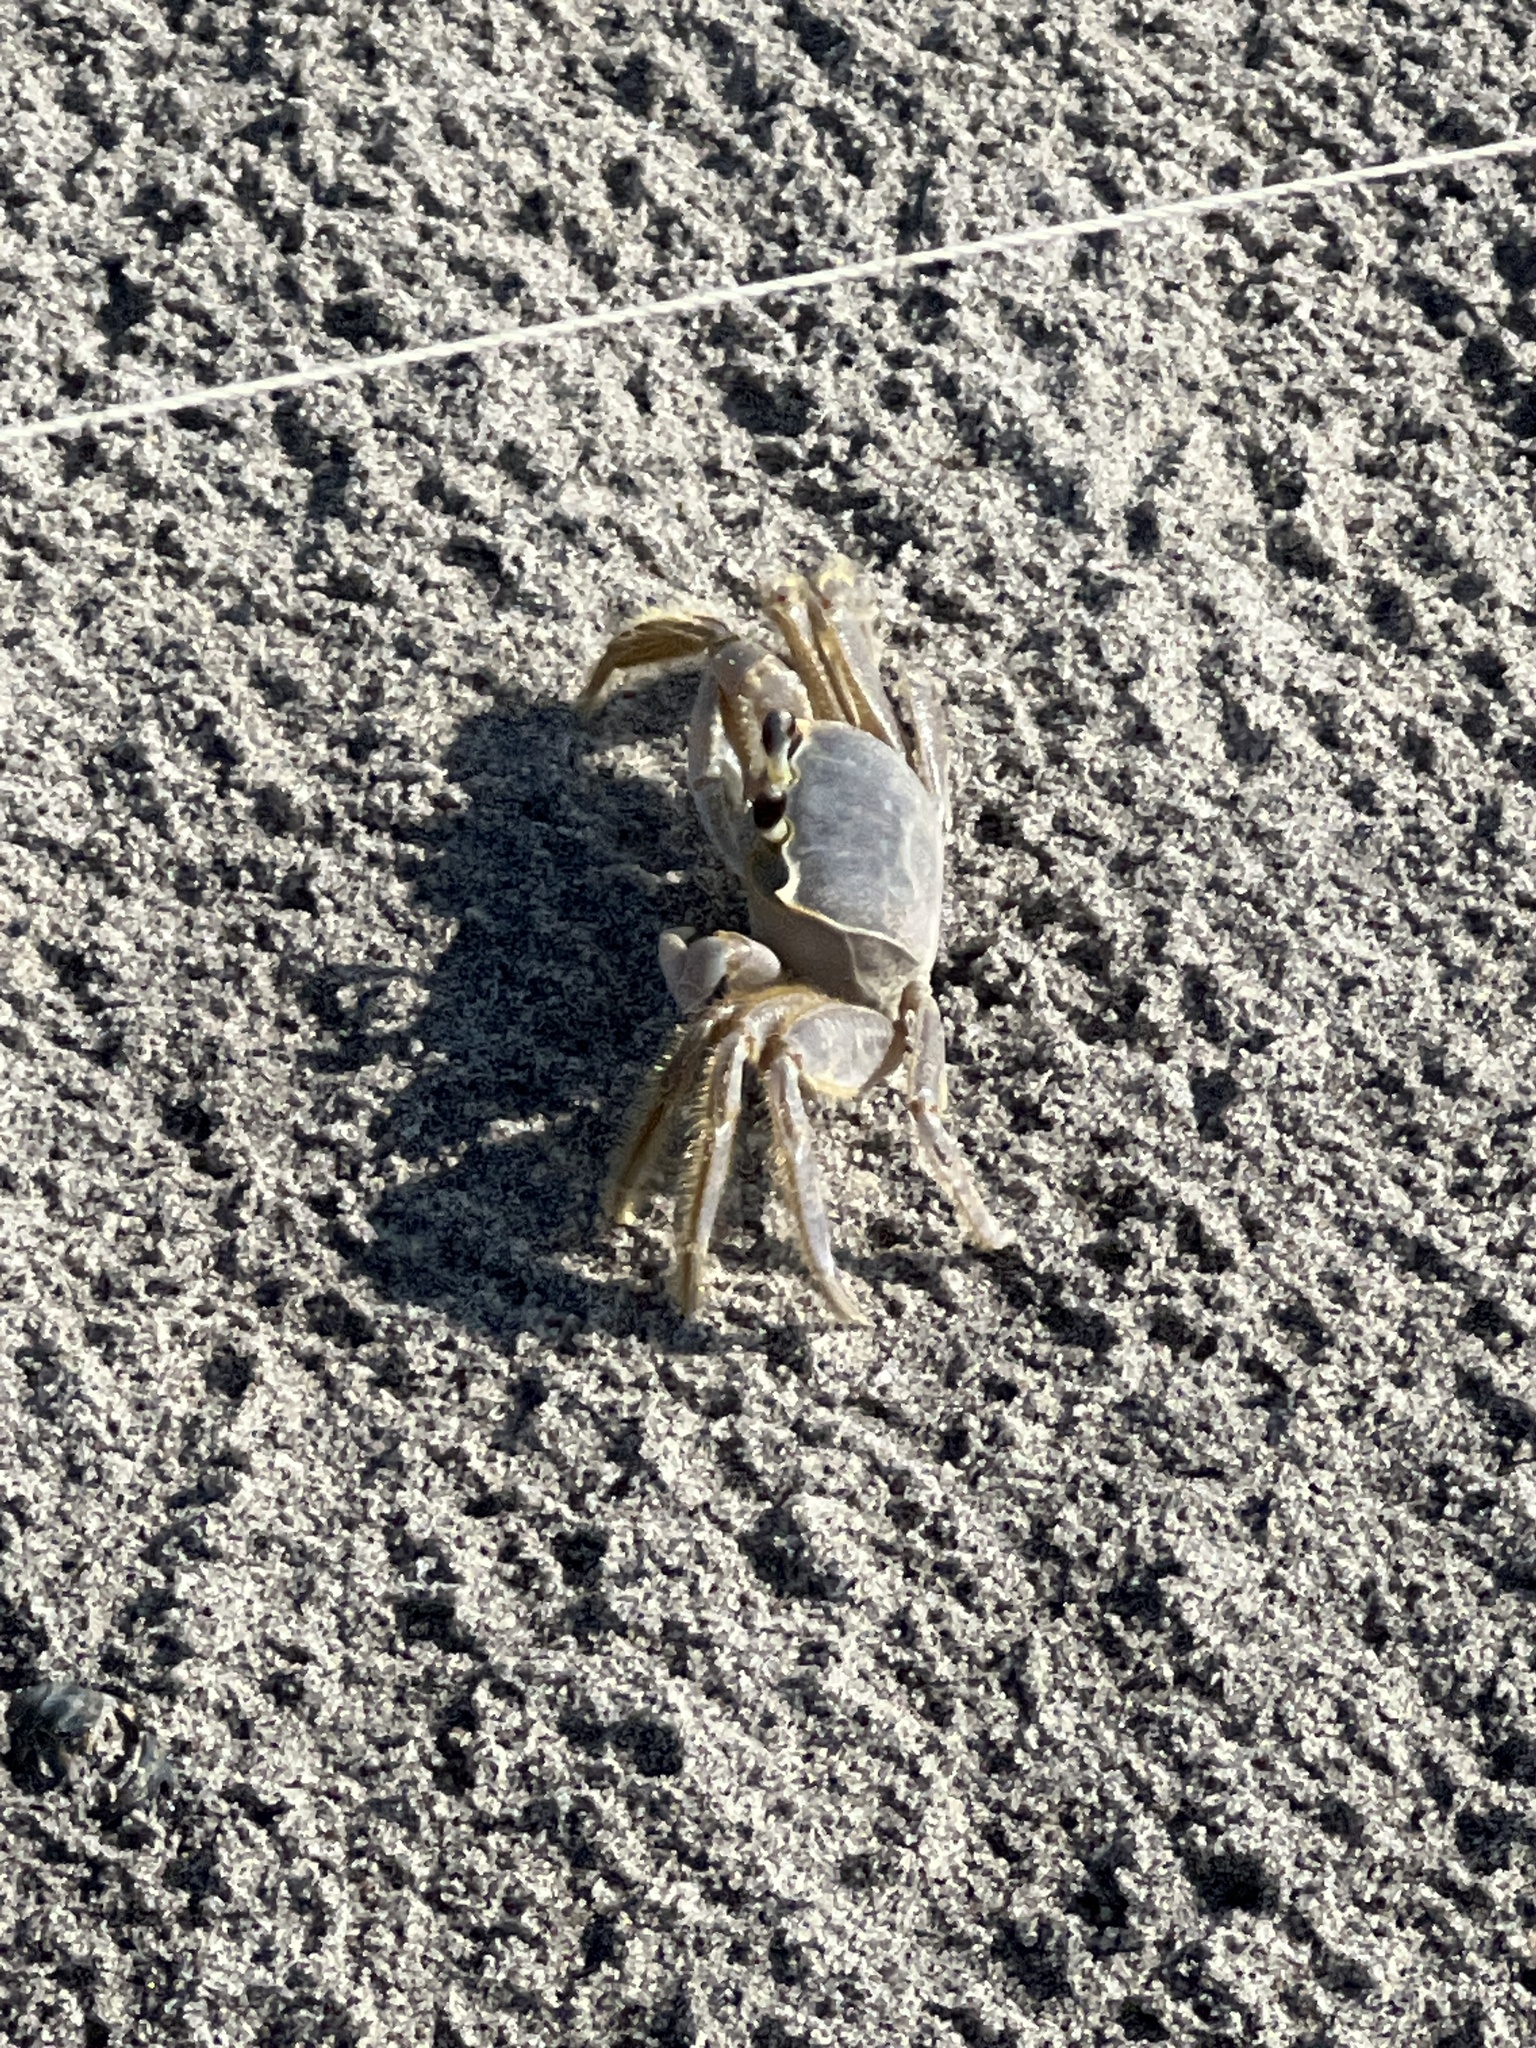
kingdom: Animalia
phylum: Arthropoda
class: Malacostraca
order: Decapoda
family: Ocypodidae
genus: Ocypode
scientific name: Ocypode quadrata
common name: Ghost crab
